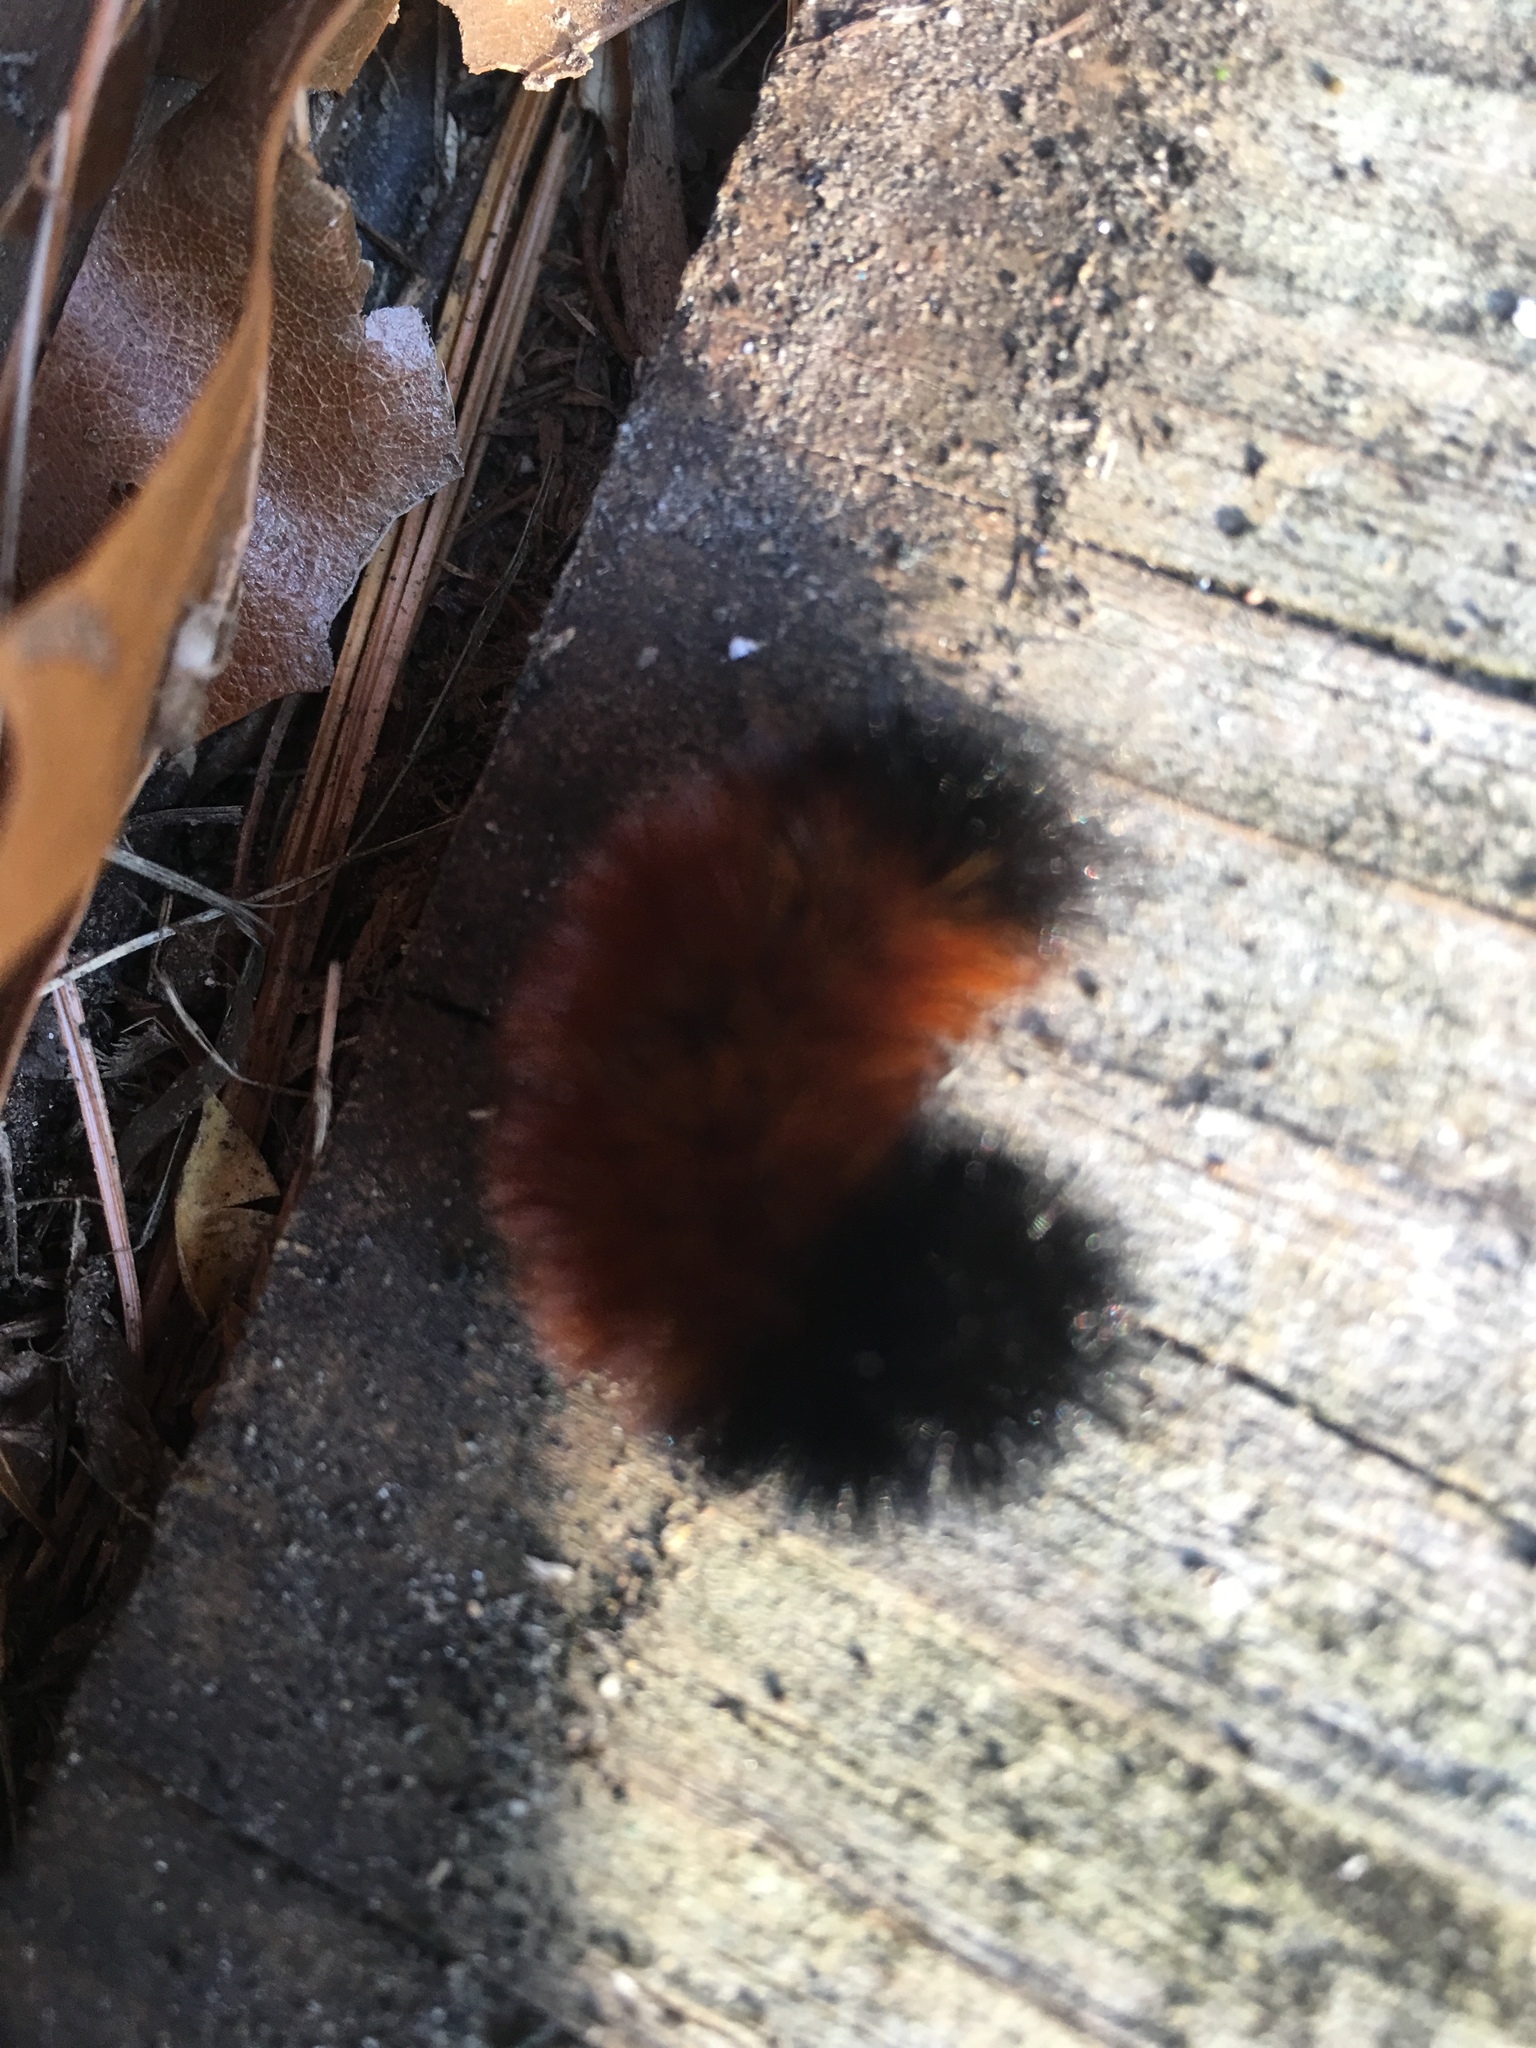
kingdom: Animalia
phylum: Arthropoda
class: Insecta
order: Lepidoptera
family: Erebidae
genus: Pyrrharctia
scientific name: Pyrrharctia isabella
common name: Isabella tiger moth
